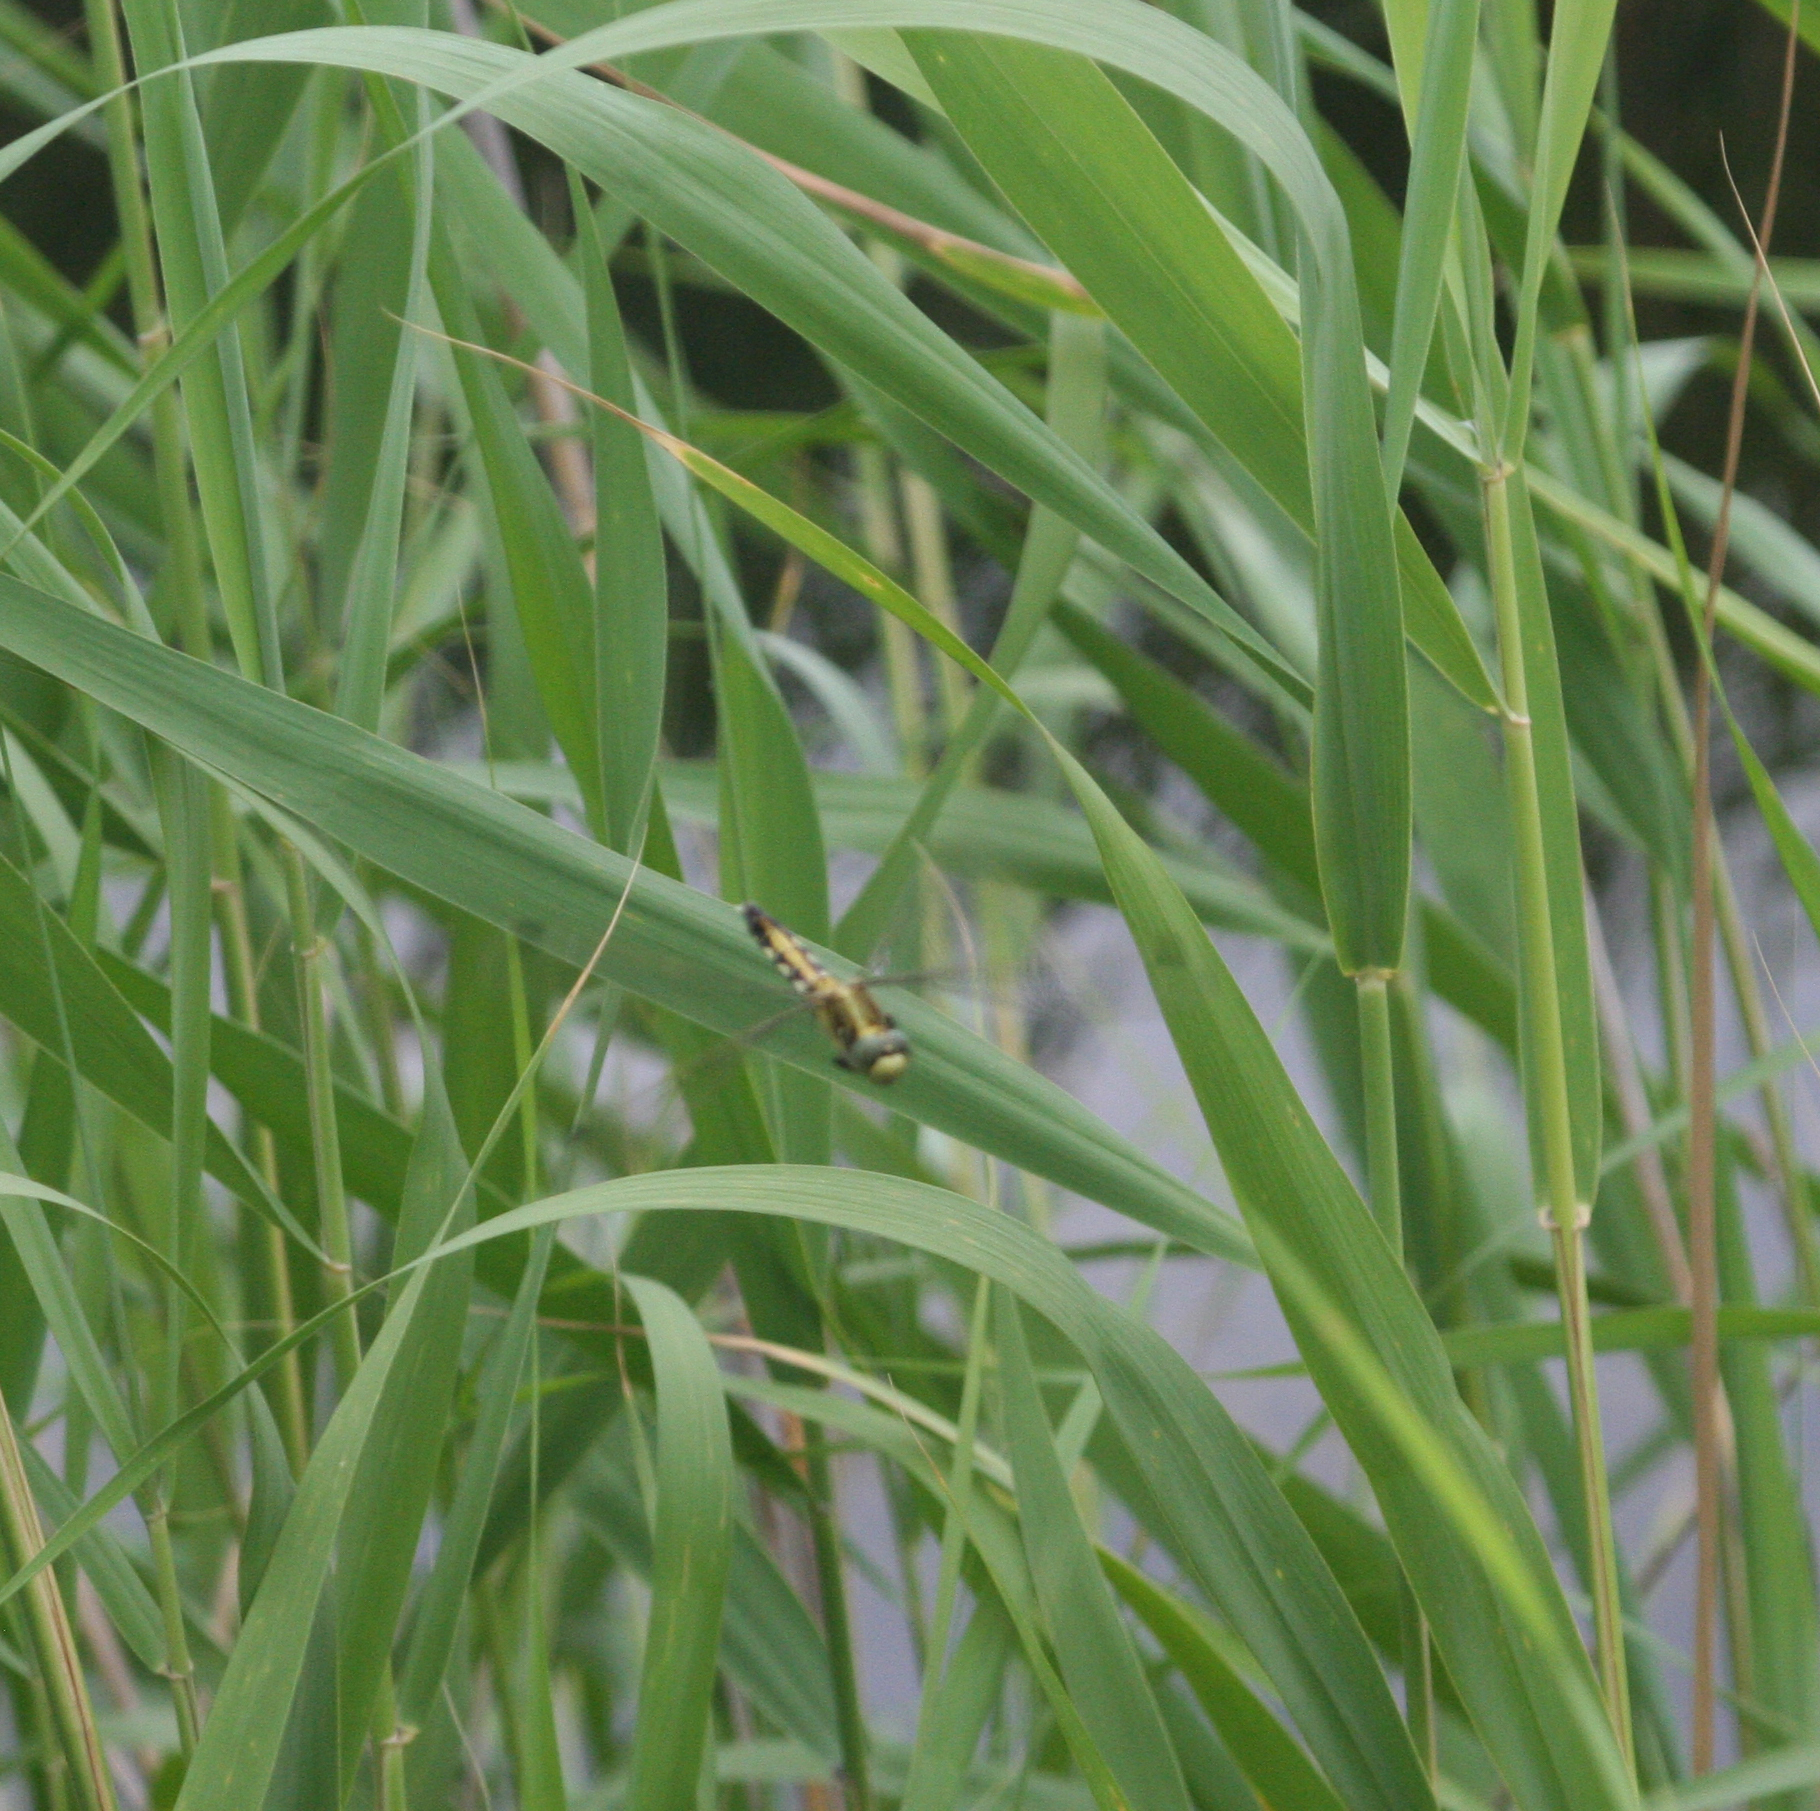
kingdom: Animalia
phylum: Arthropoda
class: Insecta
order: Odonata
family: Libellulidae
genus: Orthetrum
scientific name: Orthetrum albistylum
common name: White-tailed skimmer
